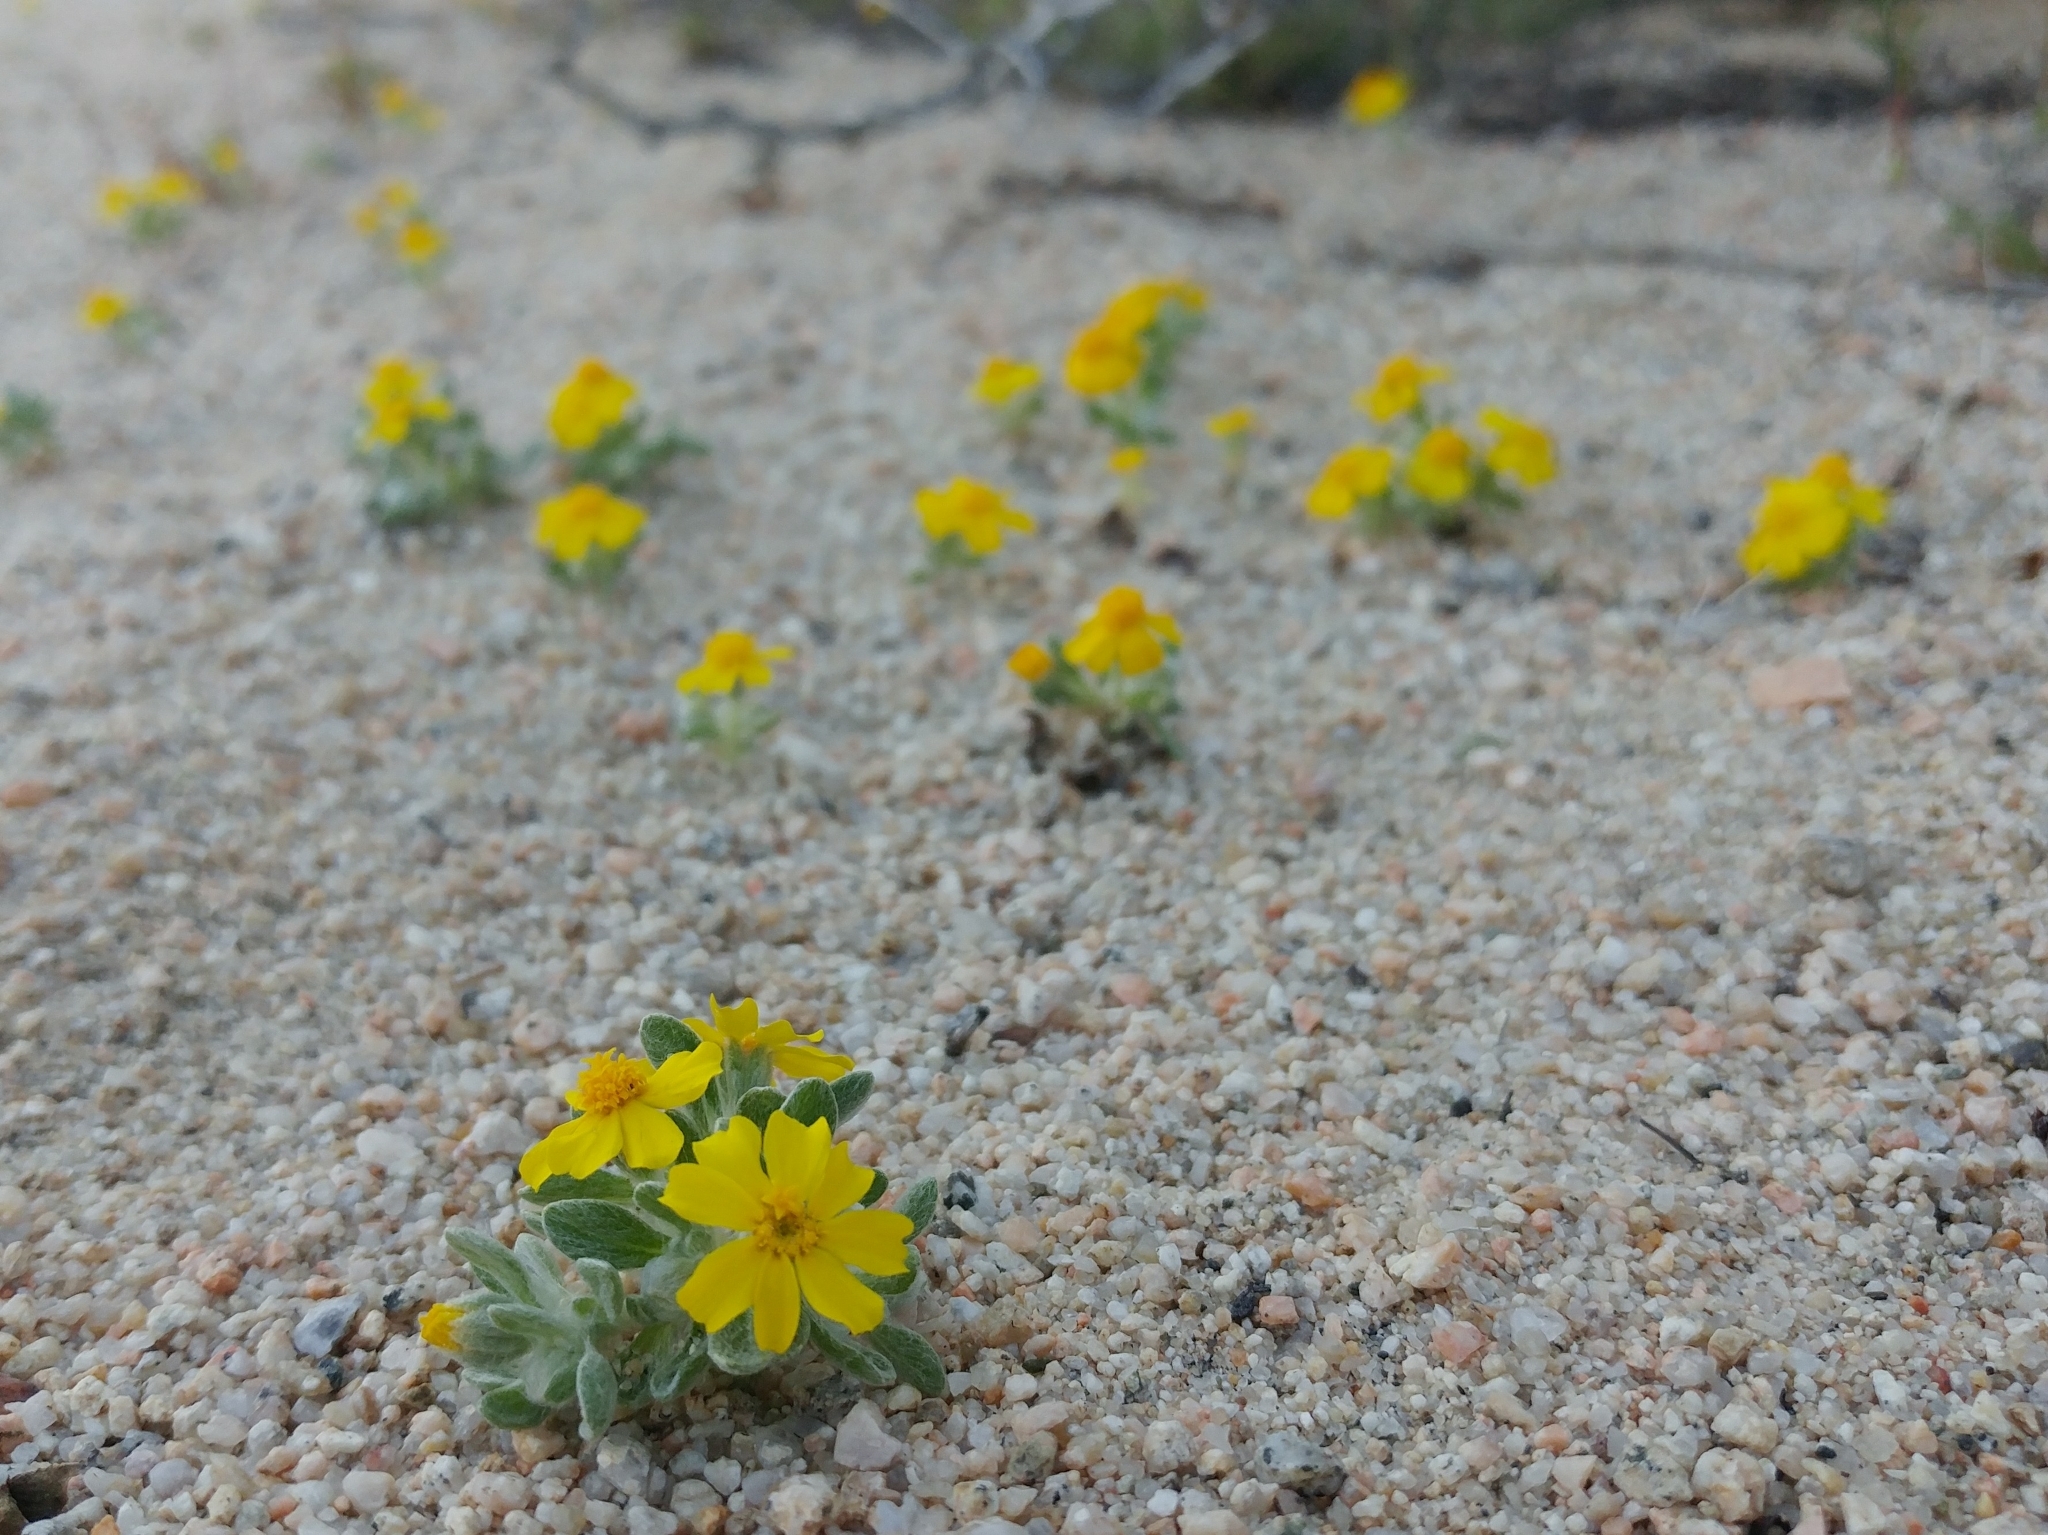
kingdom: Plantae
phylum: Tracheophyta
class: Magnoliopsida
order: Asterales
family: Asteraceae
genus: Eriophyllum
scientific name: Eriophyllum wallacei
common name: Wallace's woolly daisy
